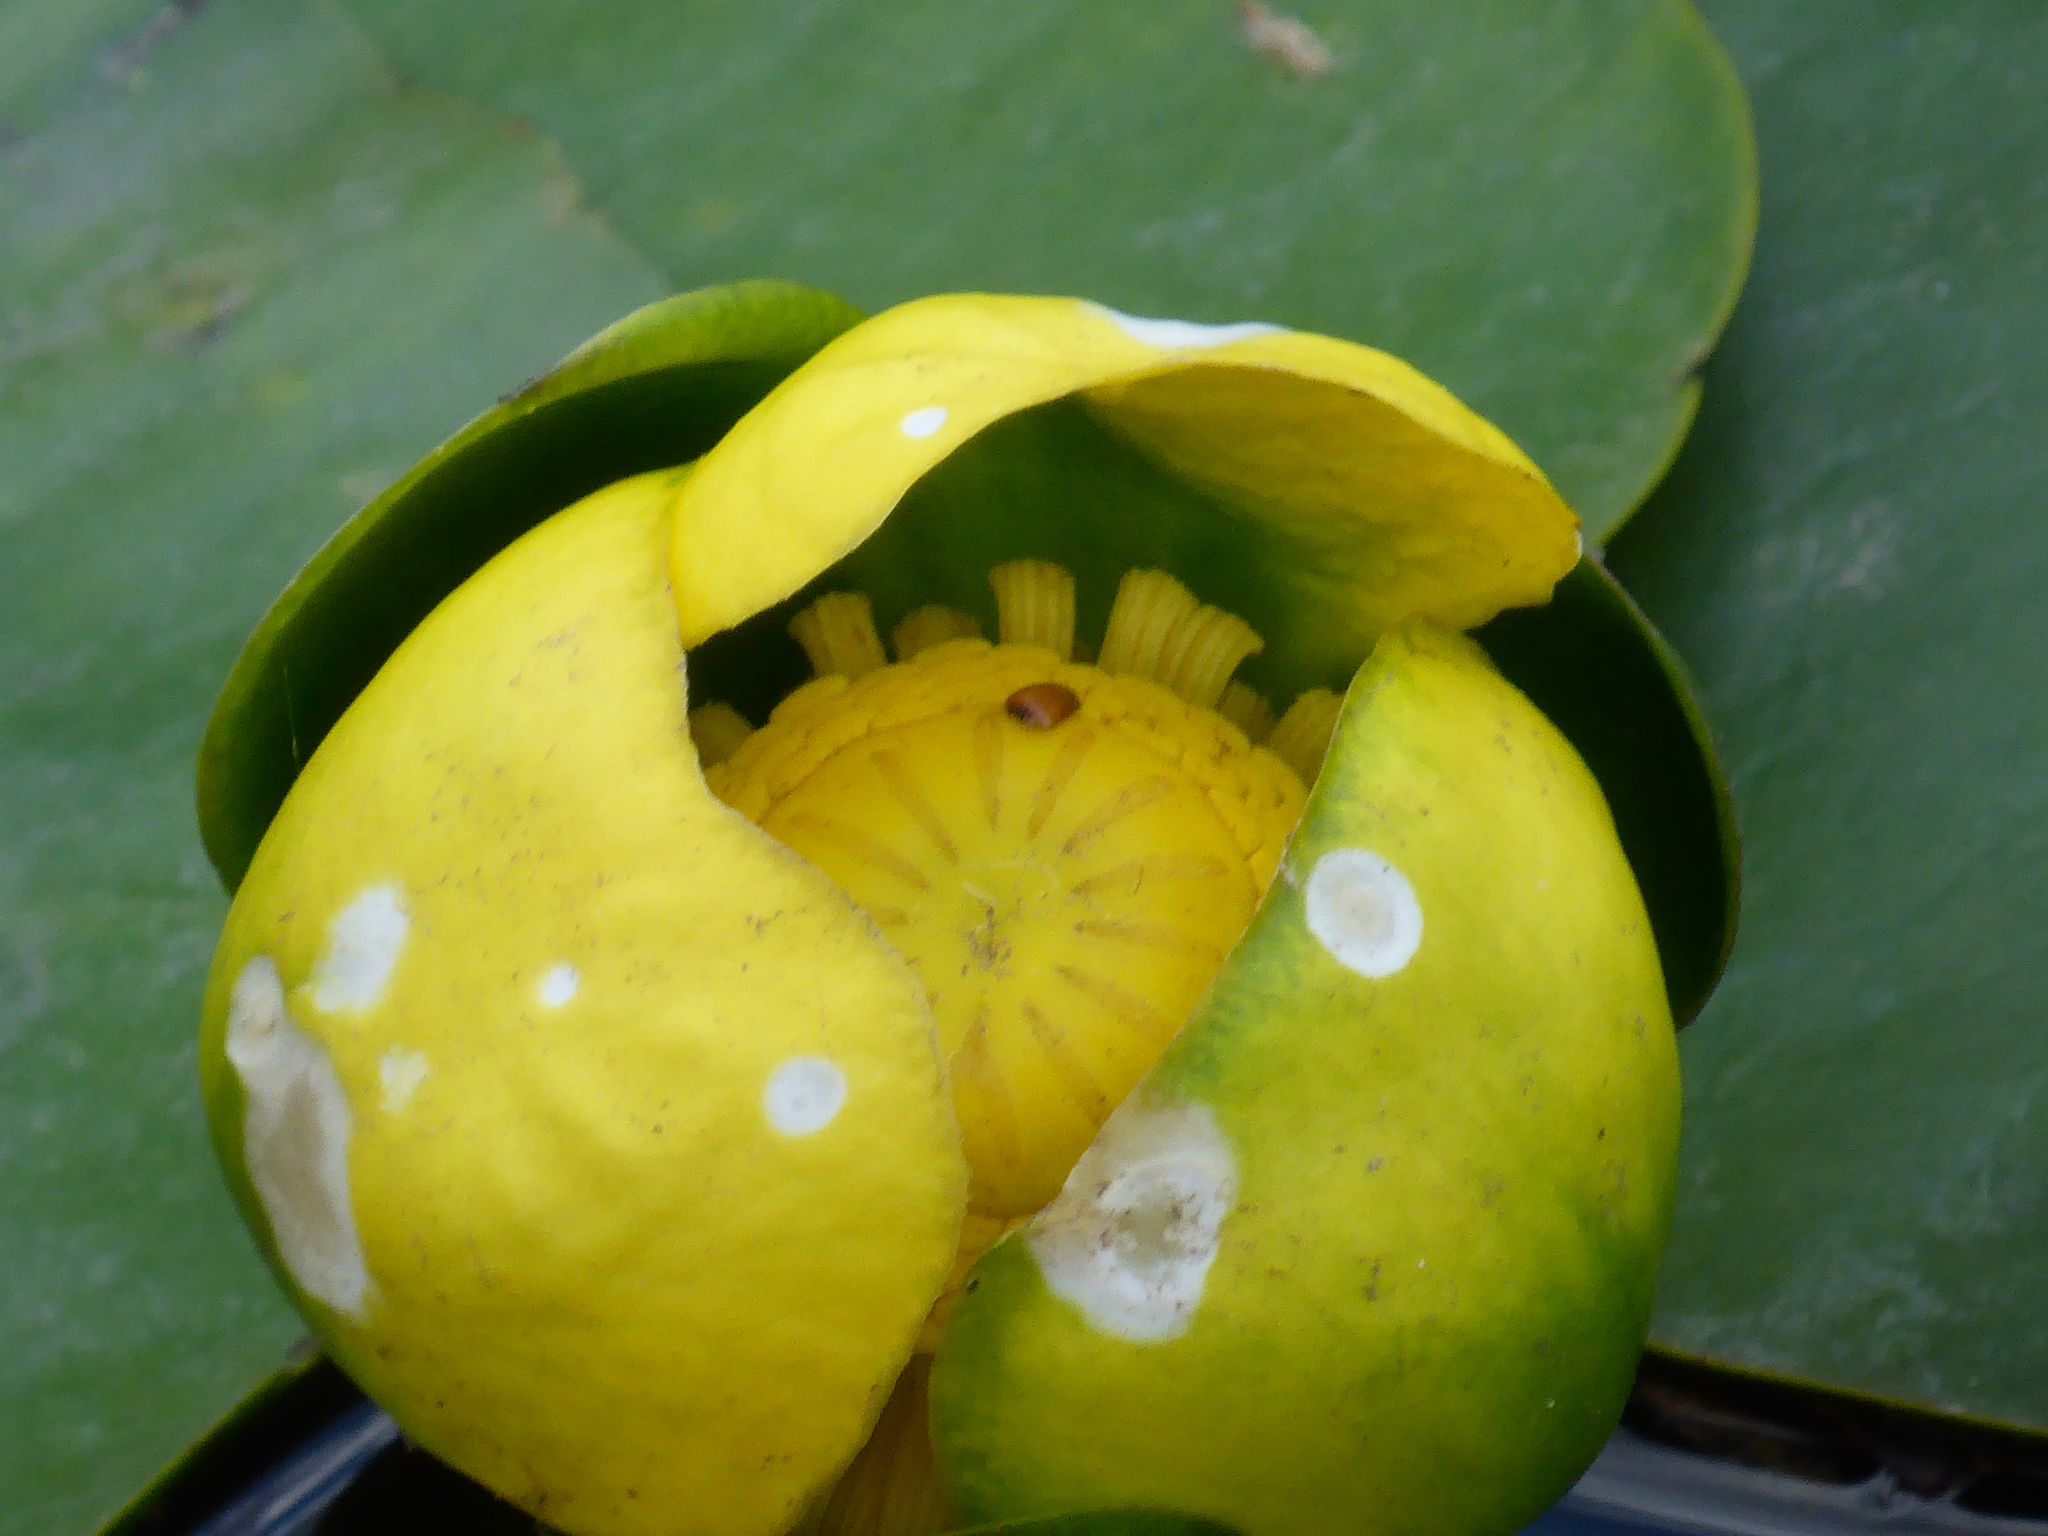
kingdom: Plantae
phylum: Tracheophyta
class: Magnoliopsida
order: Nymphaeales
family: Nymphaeaceae
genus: Nuphar
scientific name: Nuphar advena
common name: Spatter-dock
